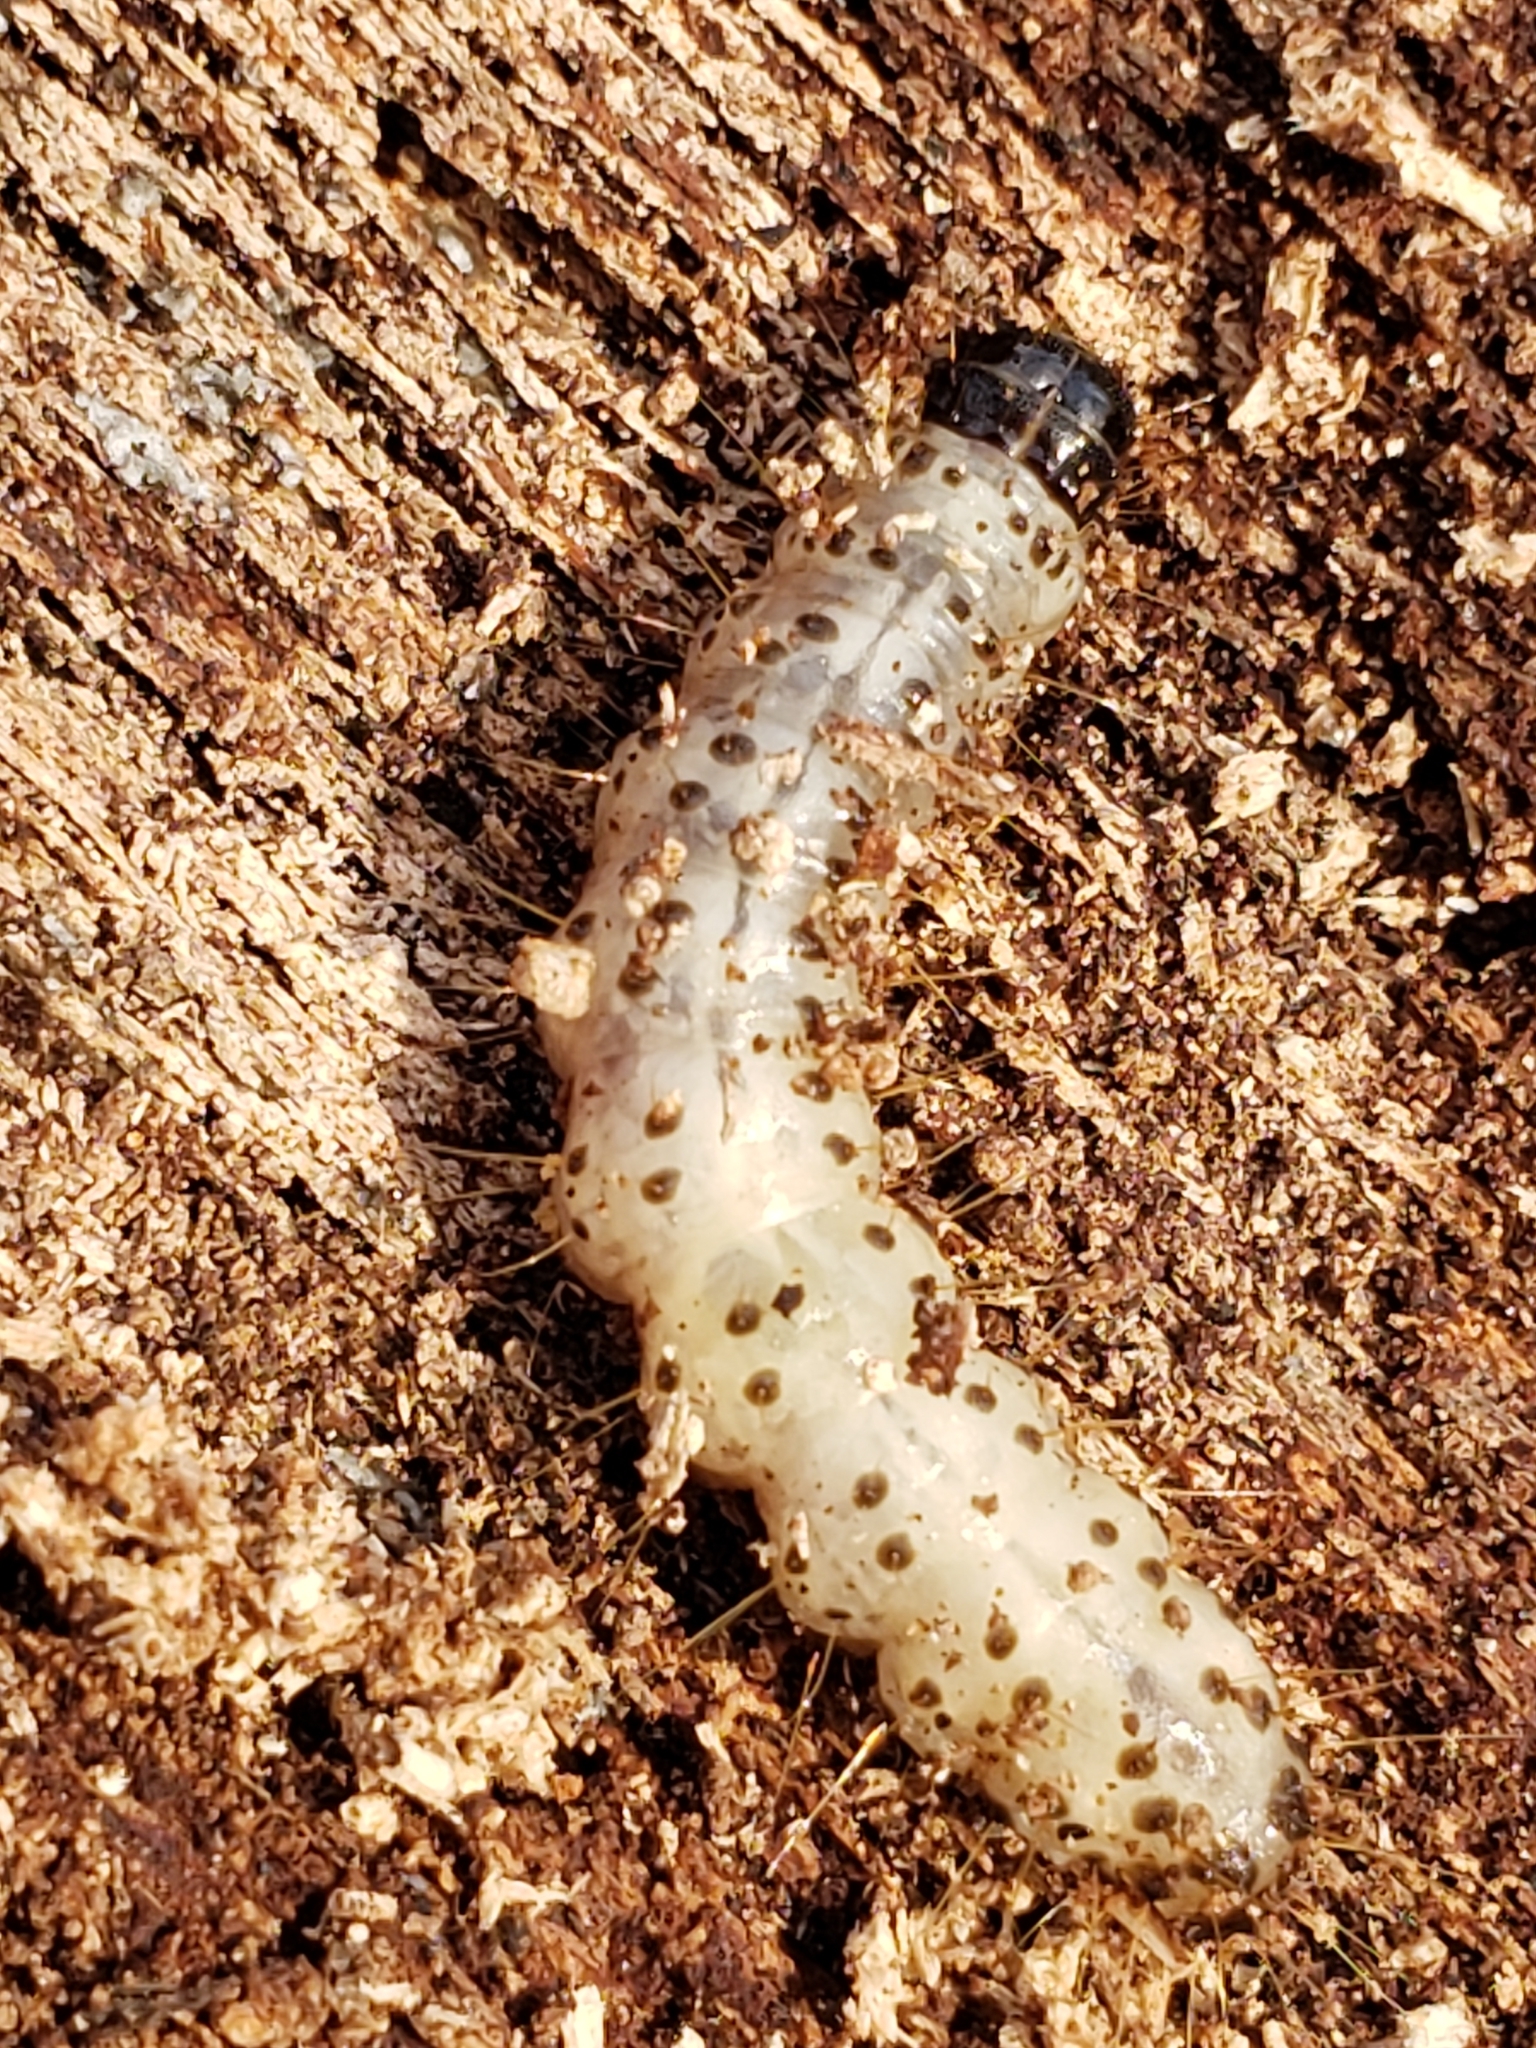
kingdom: Animalia
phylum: Arthropoda
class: Insecta
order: Lepidoptera
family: Erebidae
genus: Scolecocampa
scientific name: Scolecocampa liburna
